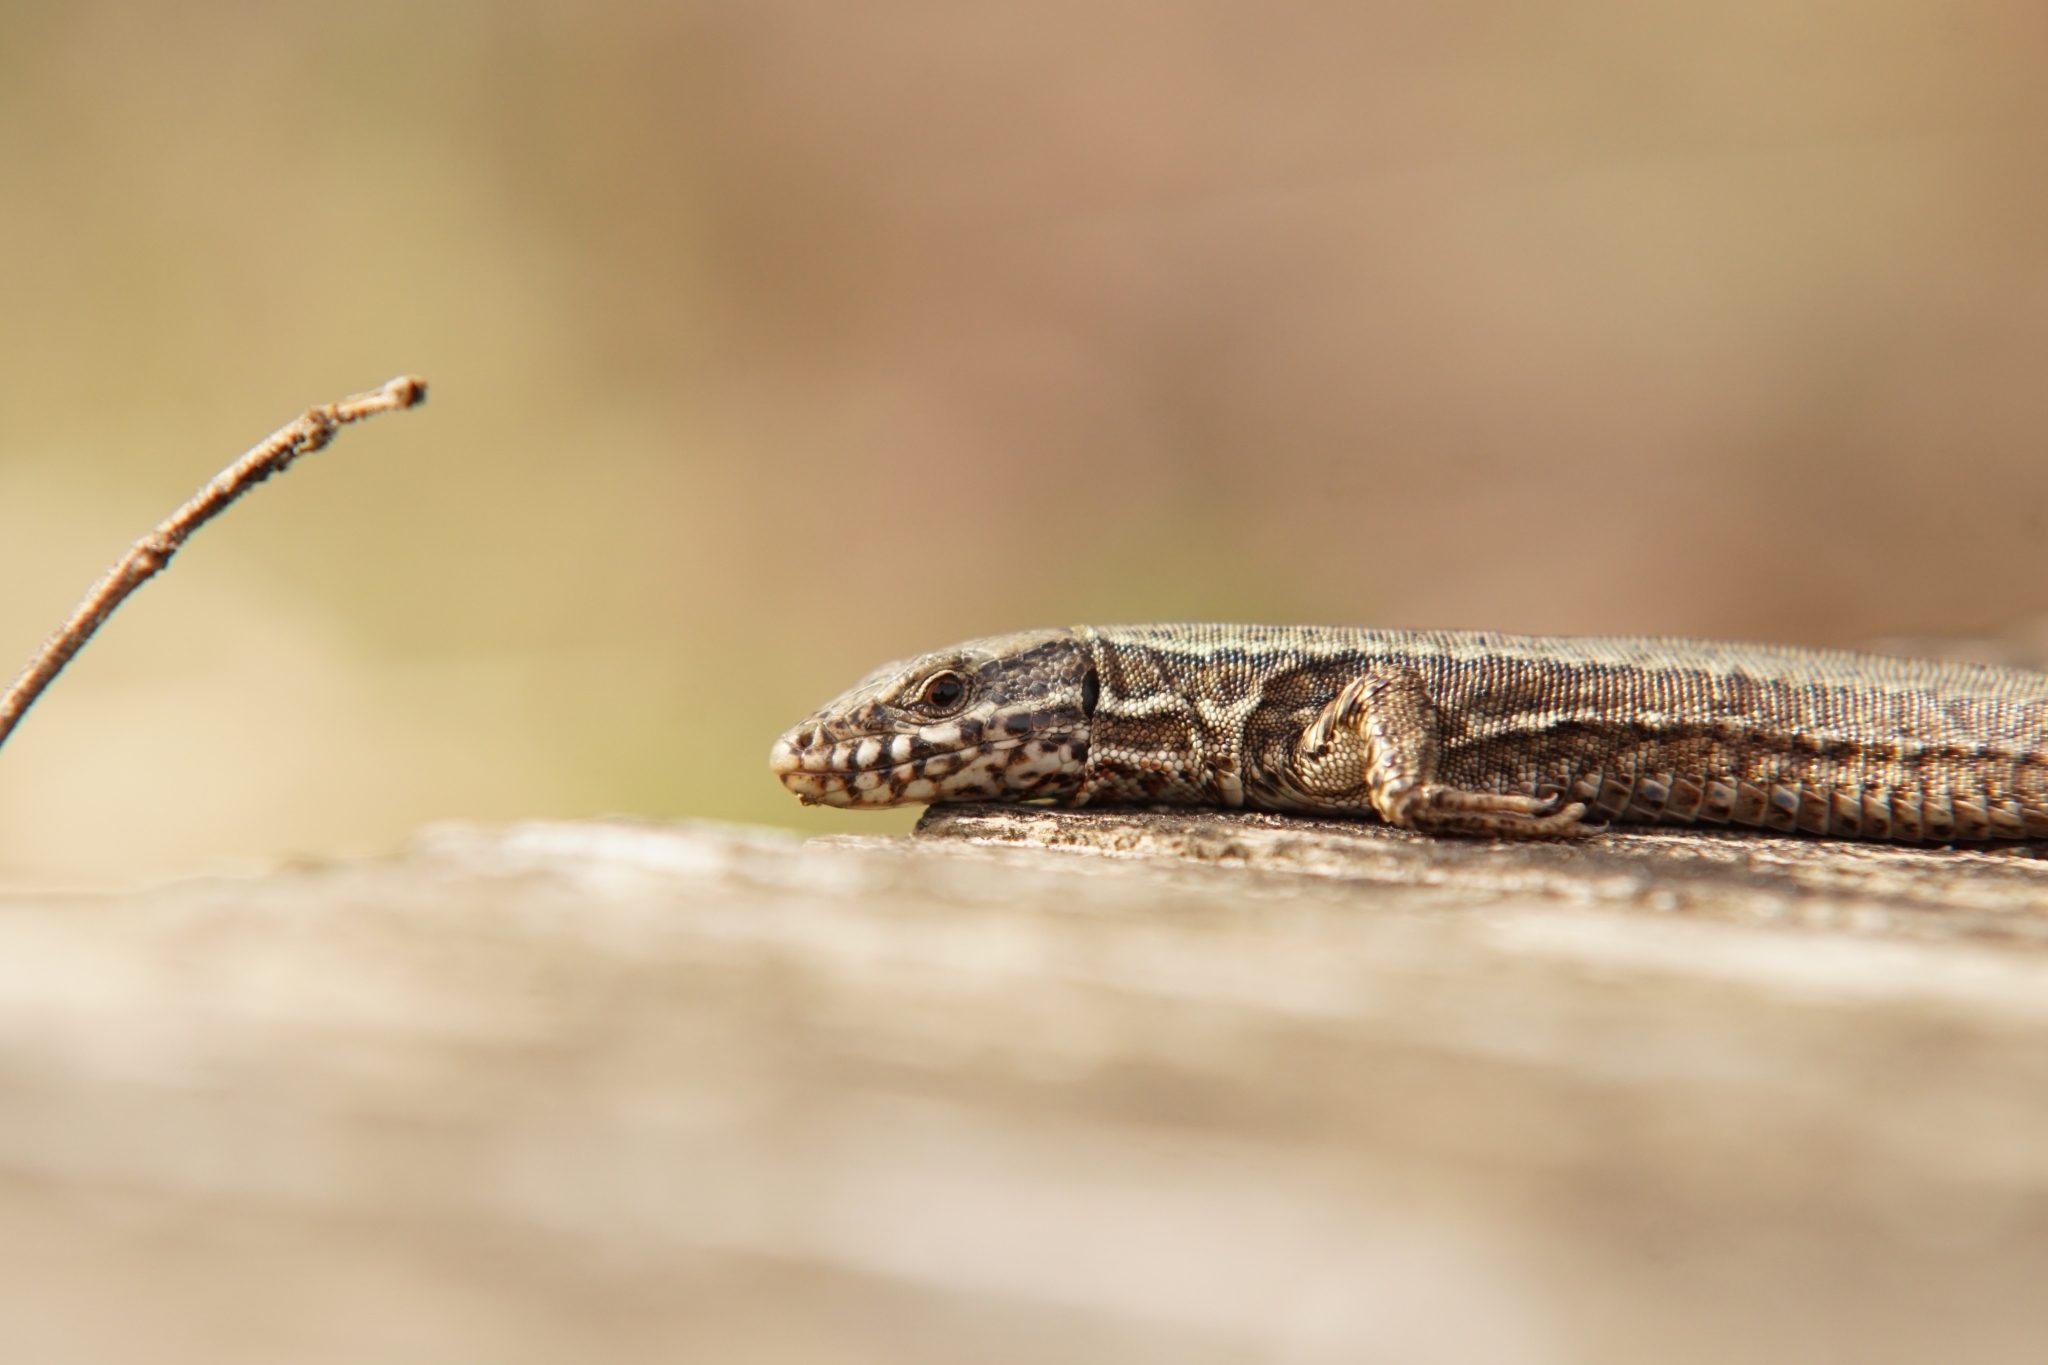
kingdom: Animalia
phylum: Chordata
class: Squamata
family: Lacertidae
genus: Podarcis
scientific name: Podarcis muralis
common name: Common wall lizard
